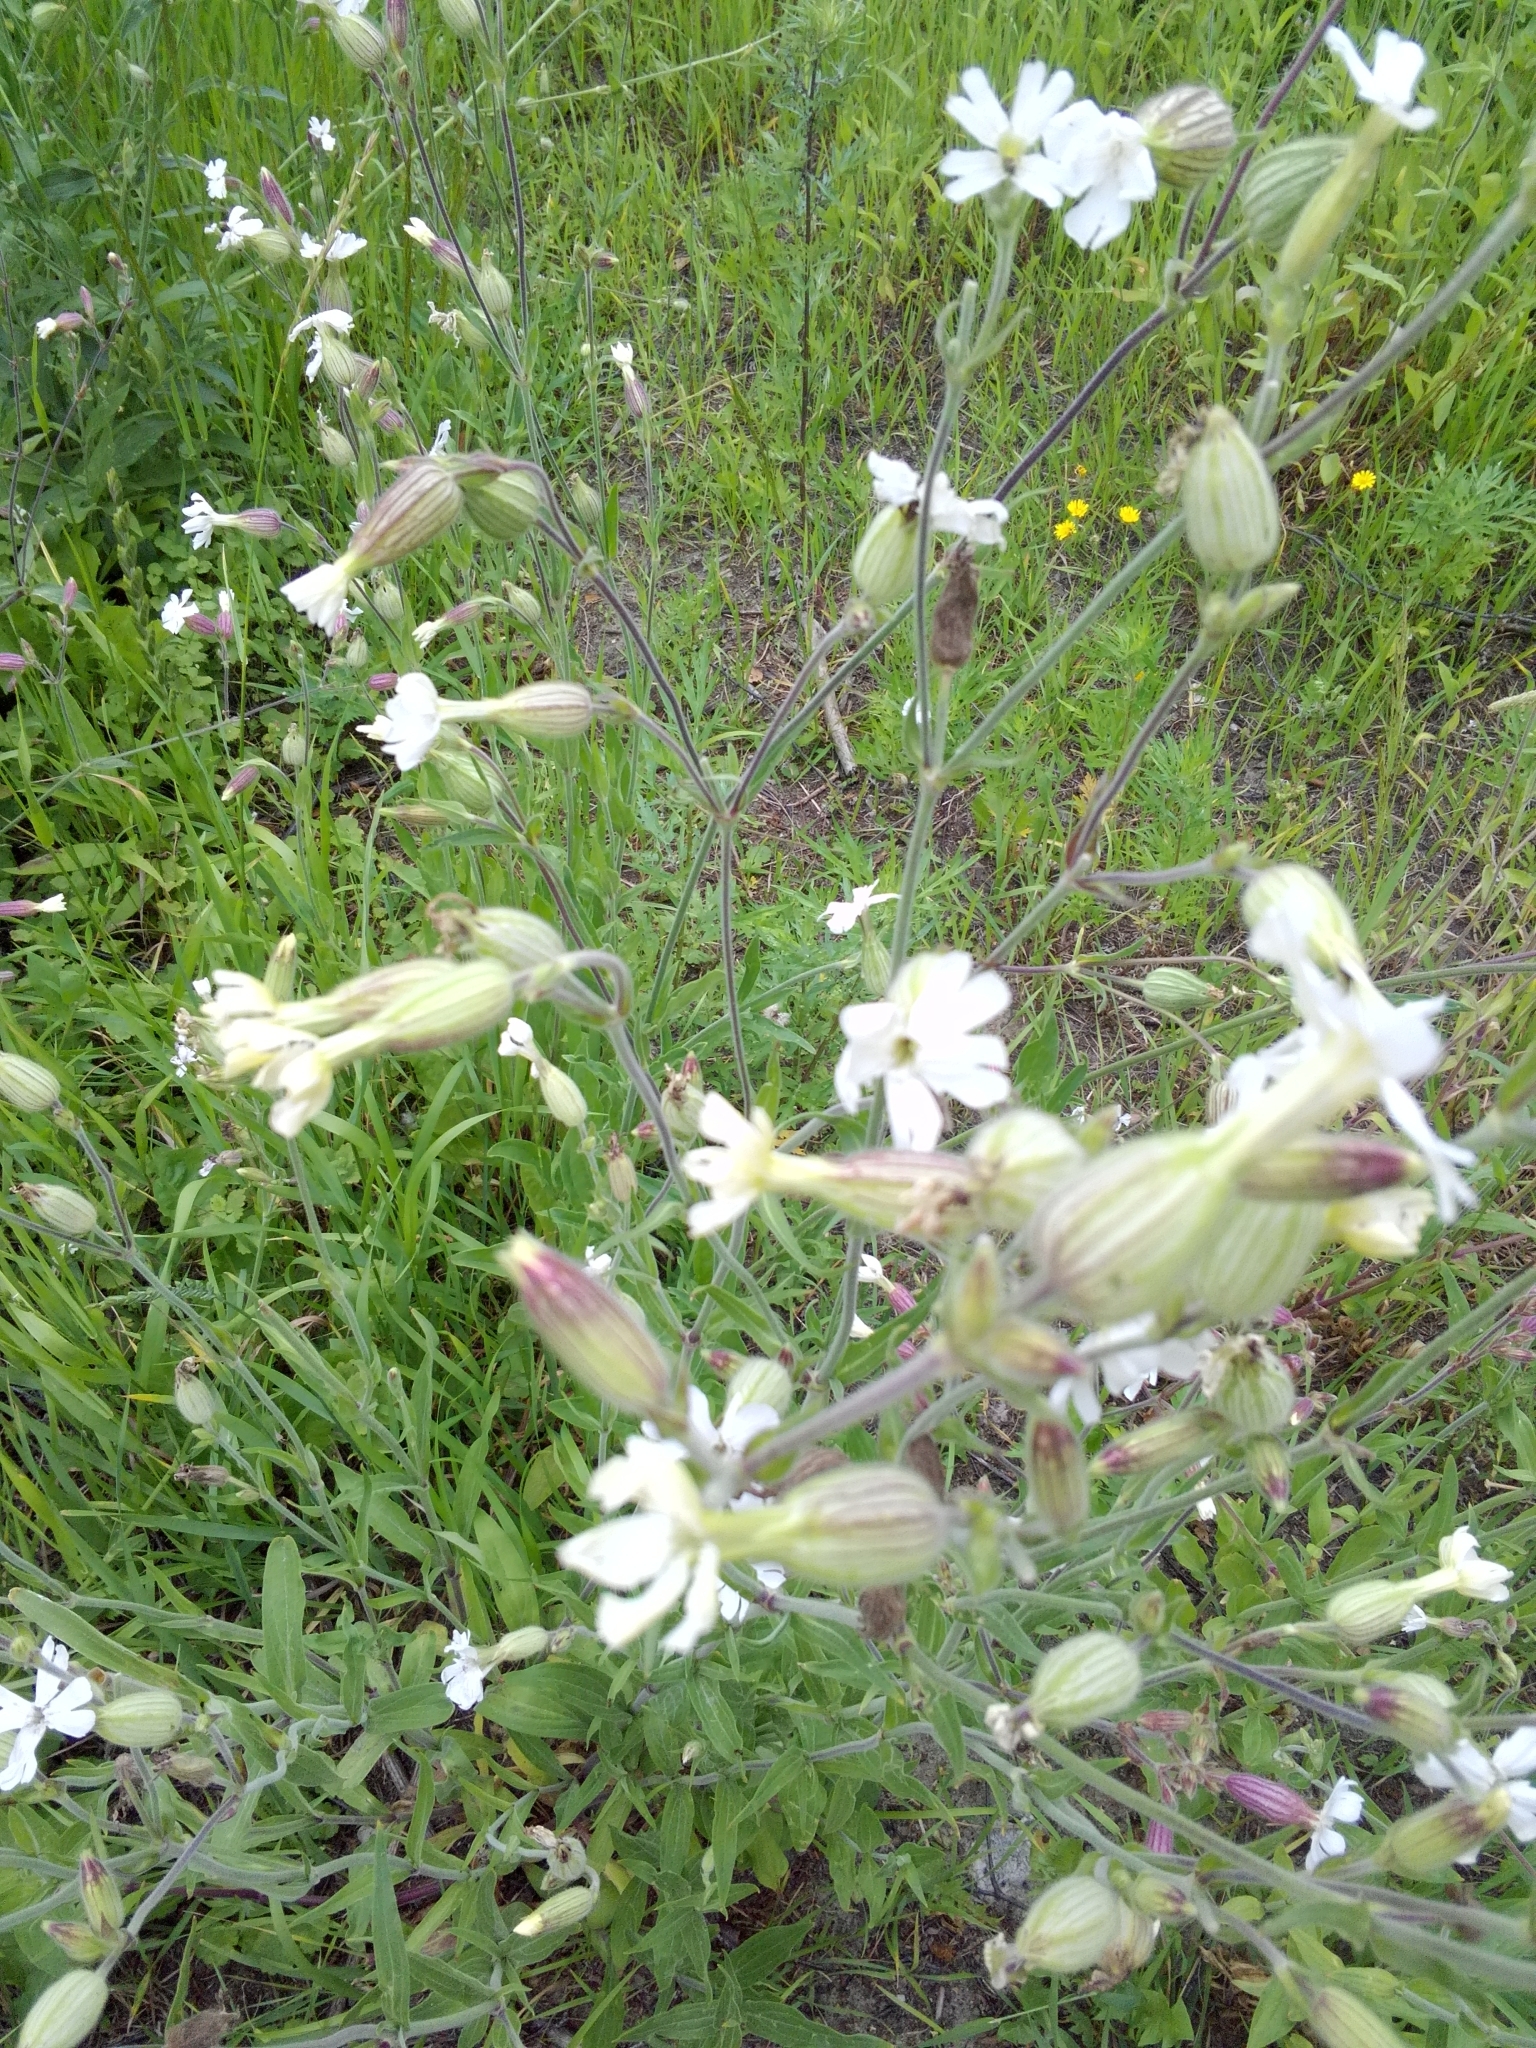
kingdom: Plantae
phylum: Tracheophyta
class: Magnoliopsida
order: Caryophyllales
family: Caryophyllaceae
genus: Silene
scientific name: Silene vulgaris
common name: Bladder campion
